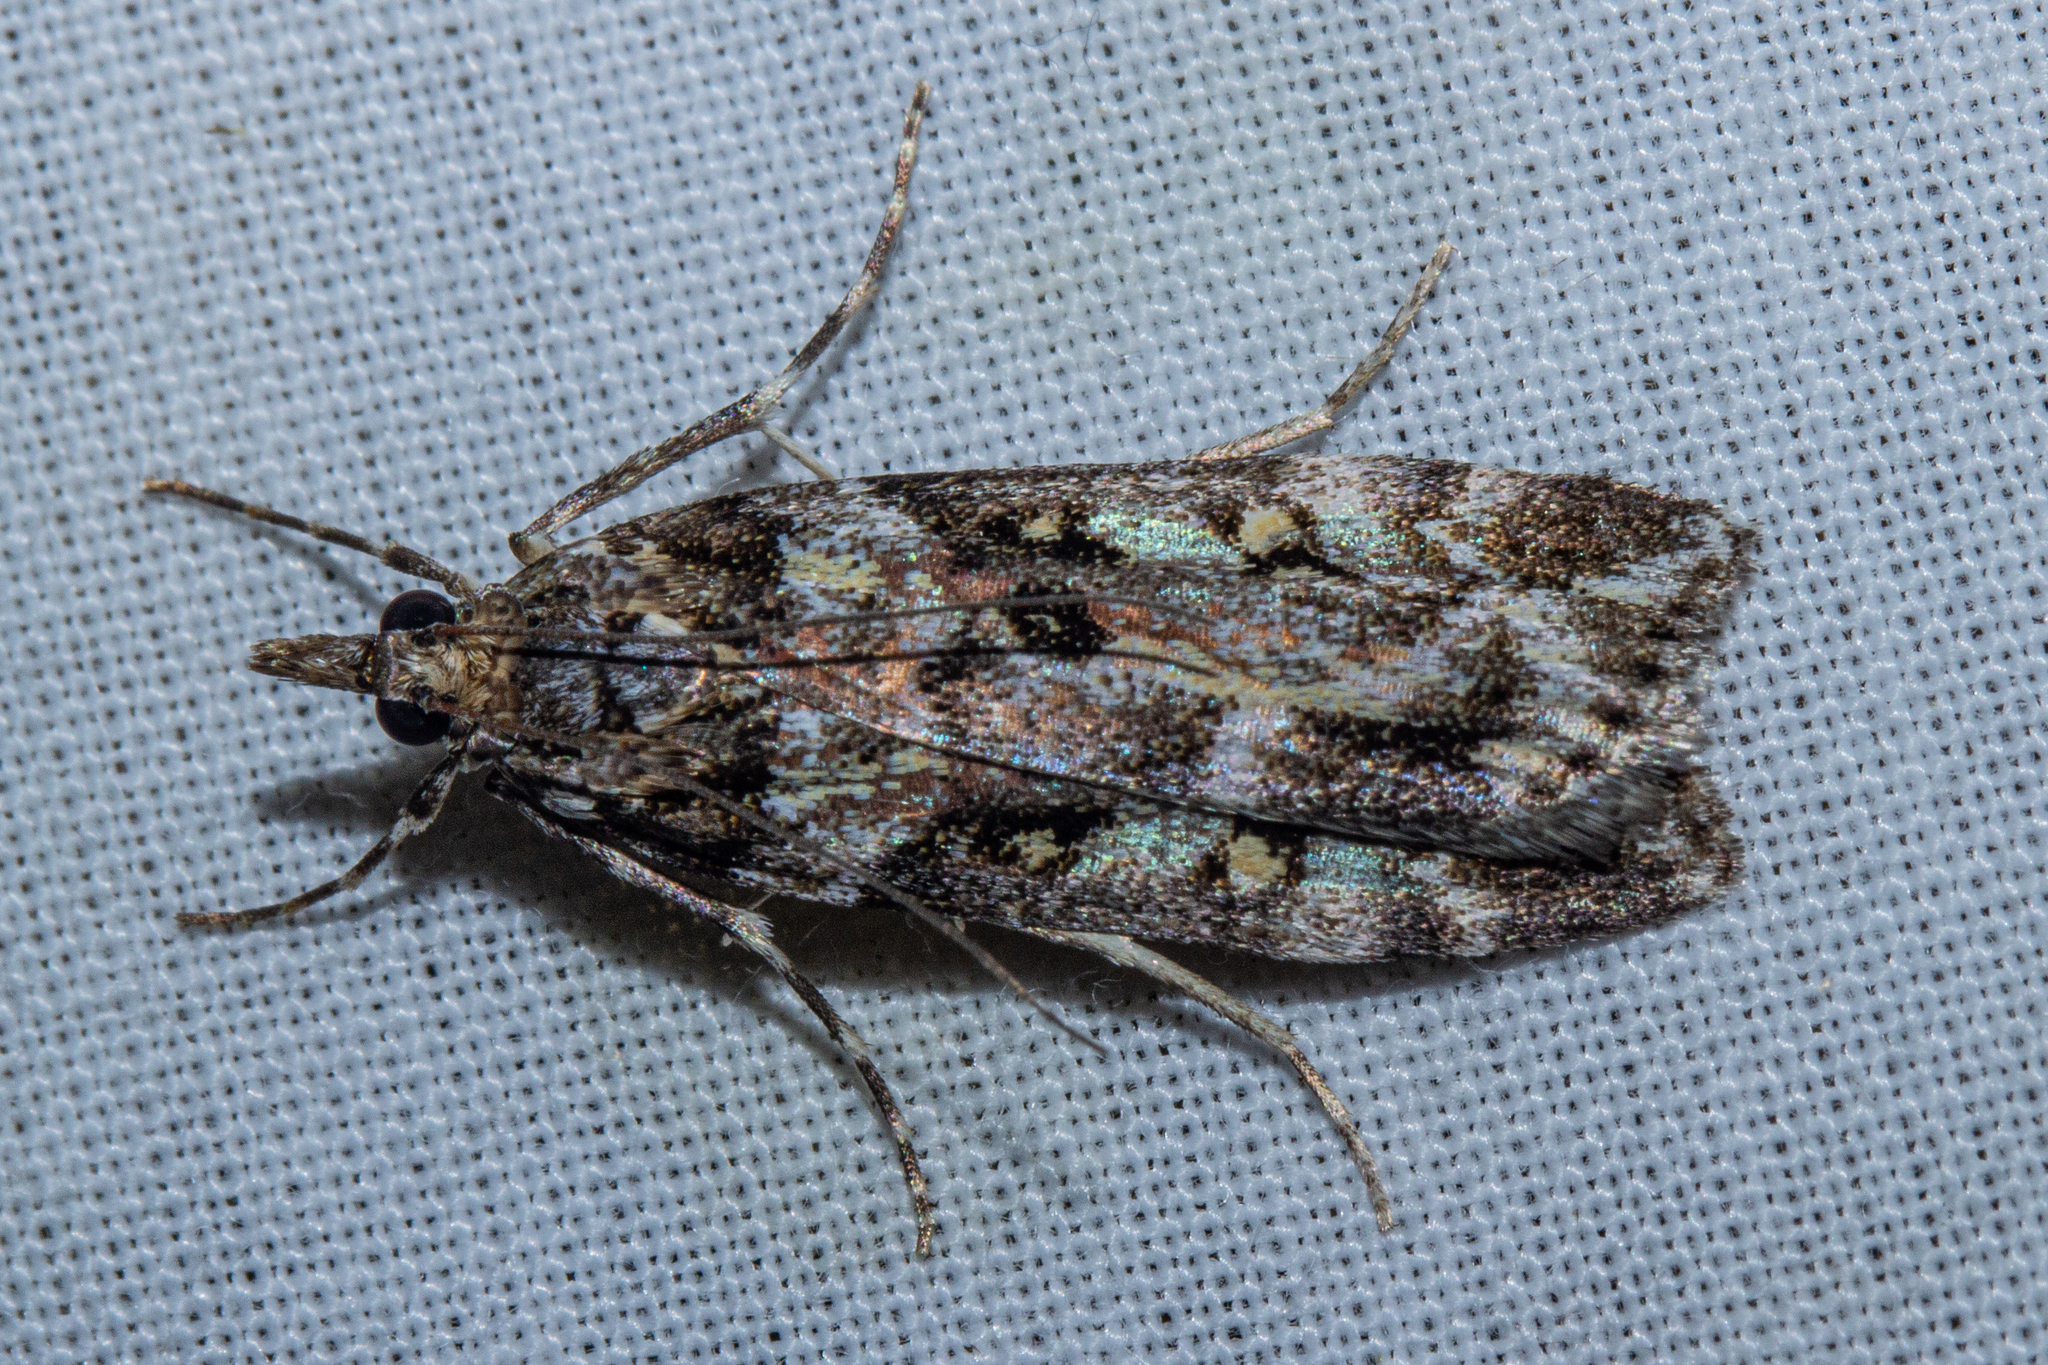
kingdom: Animalia
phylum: Arthropoda
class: Insecta
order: Lepidoptera
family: Crambidae
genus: Eudonia
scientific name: Eudonia diphtheralis
